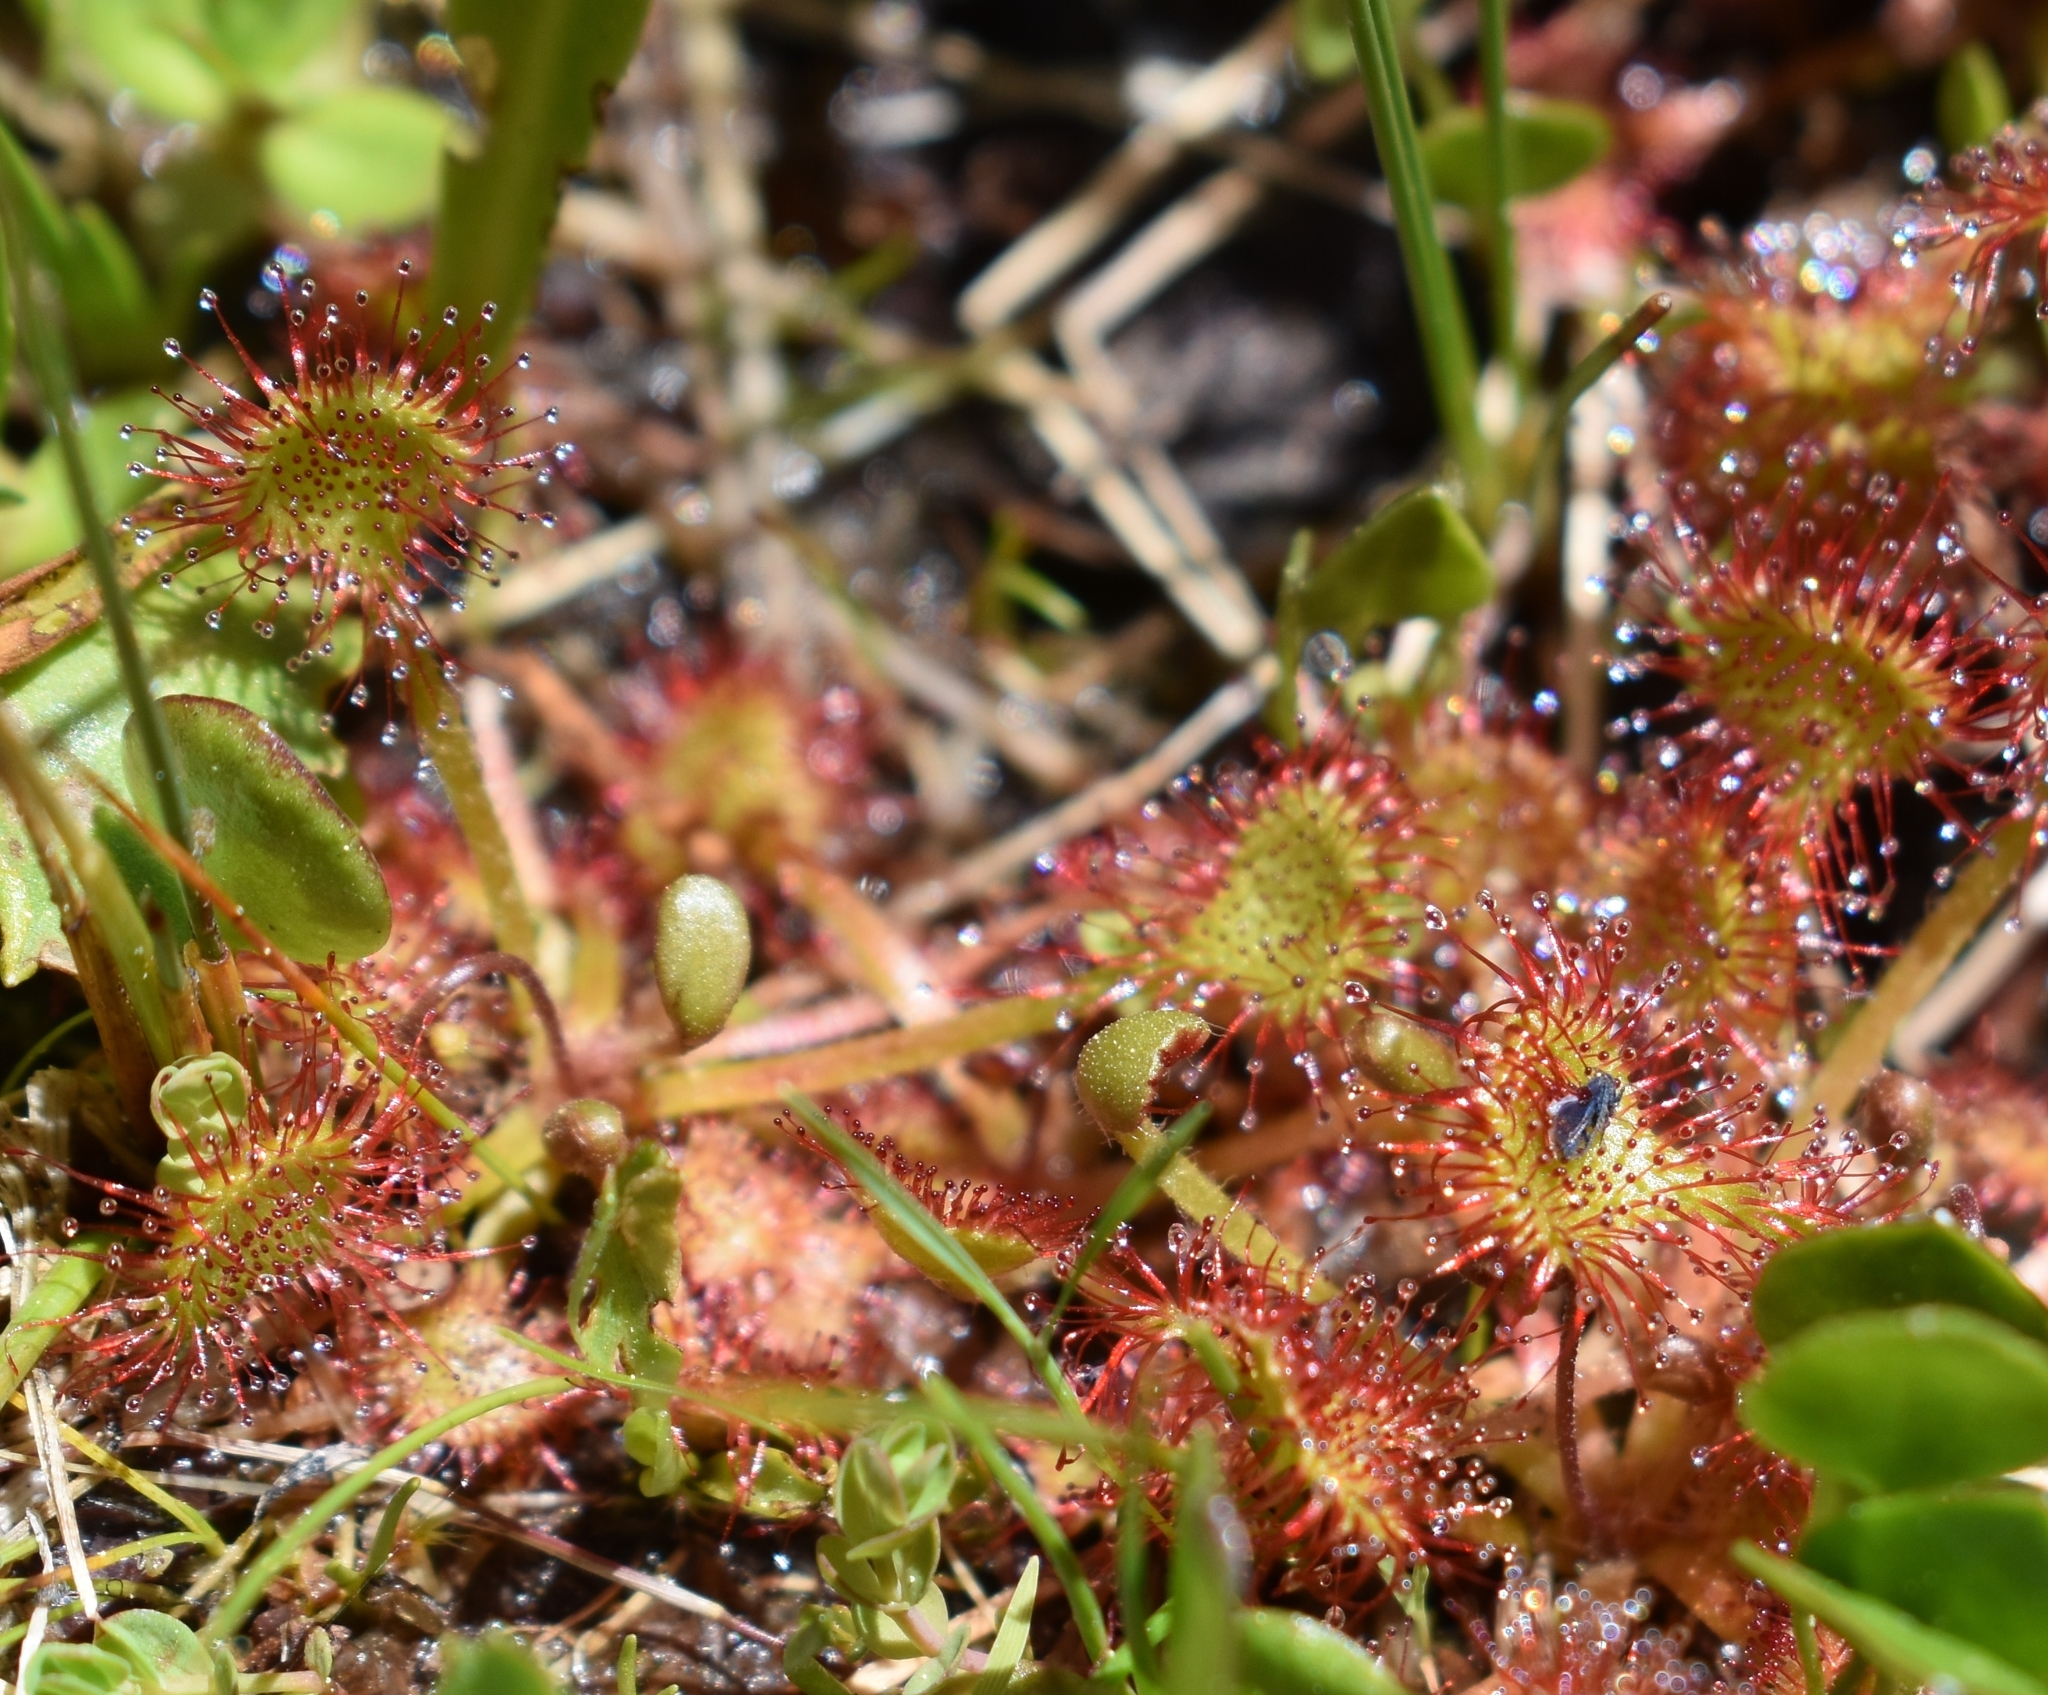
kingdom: Plantae
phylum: Tracheophyta
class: Magnoliopsida
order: Caryophyllales
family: Droseraceae
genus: Drosera
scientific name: Drosera rotundifolia
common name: Round-leaved sundew
